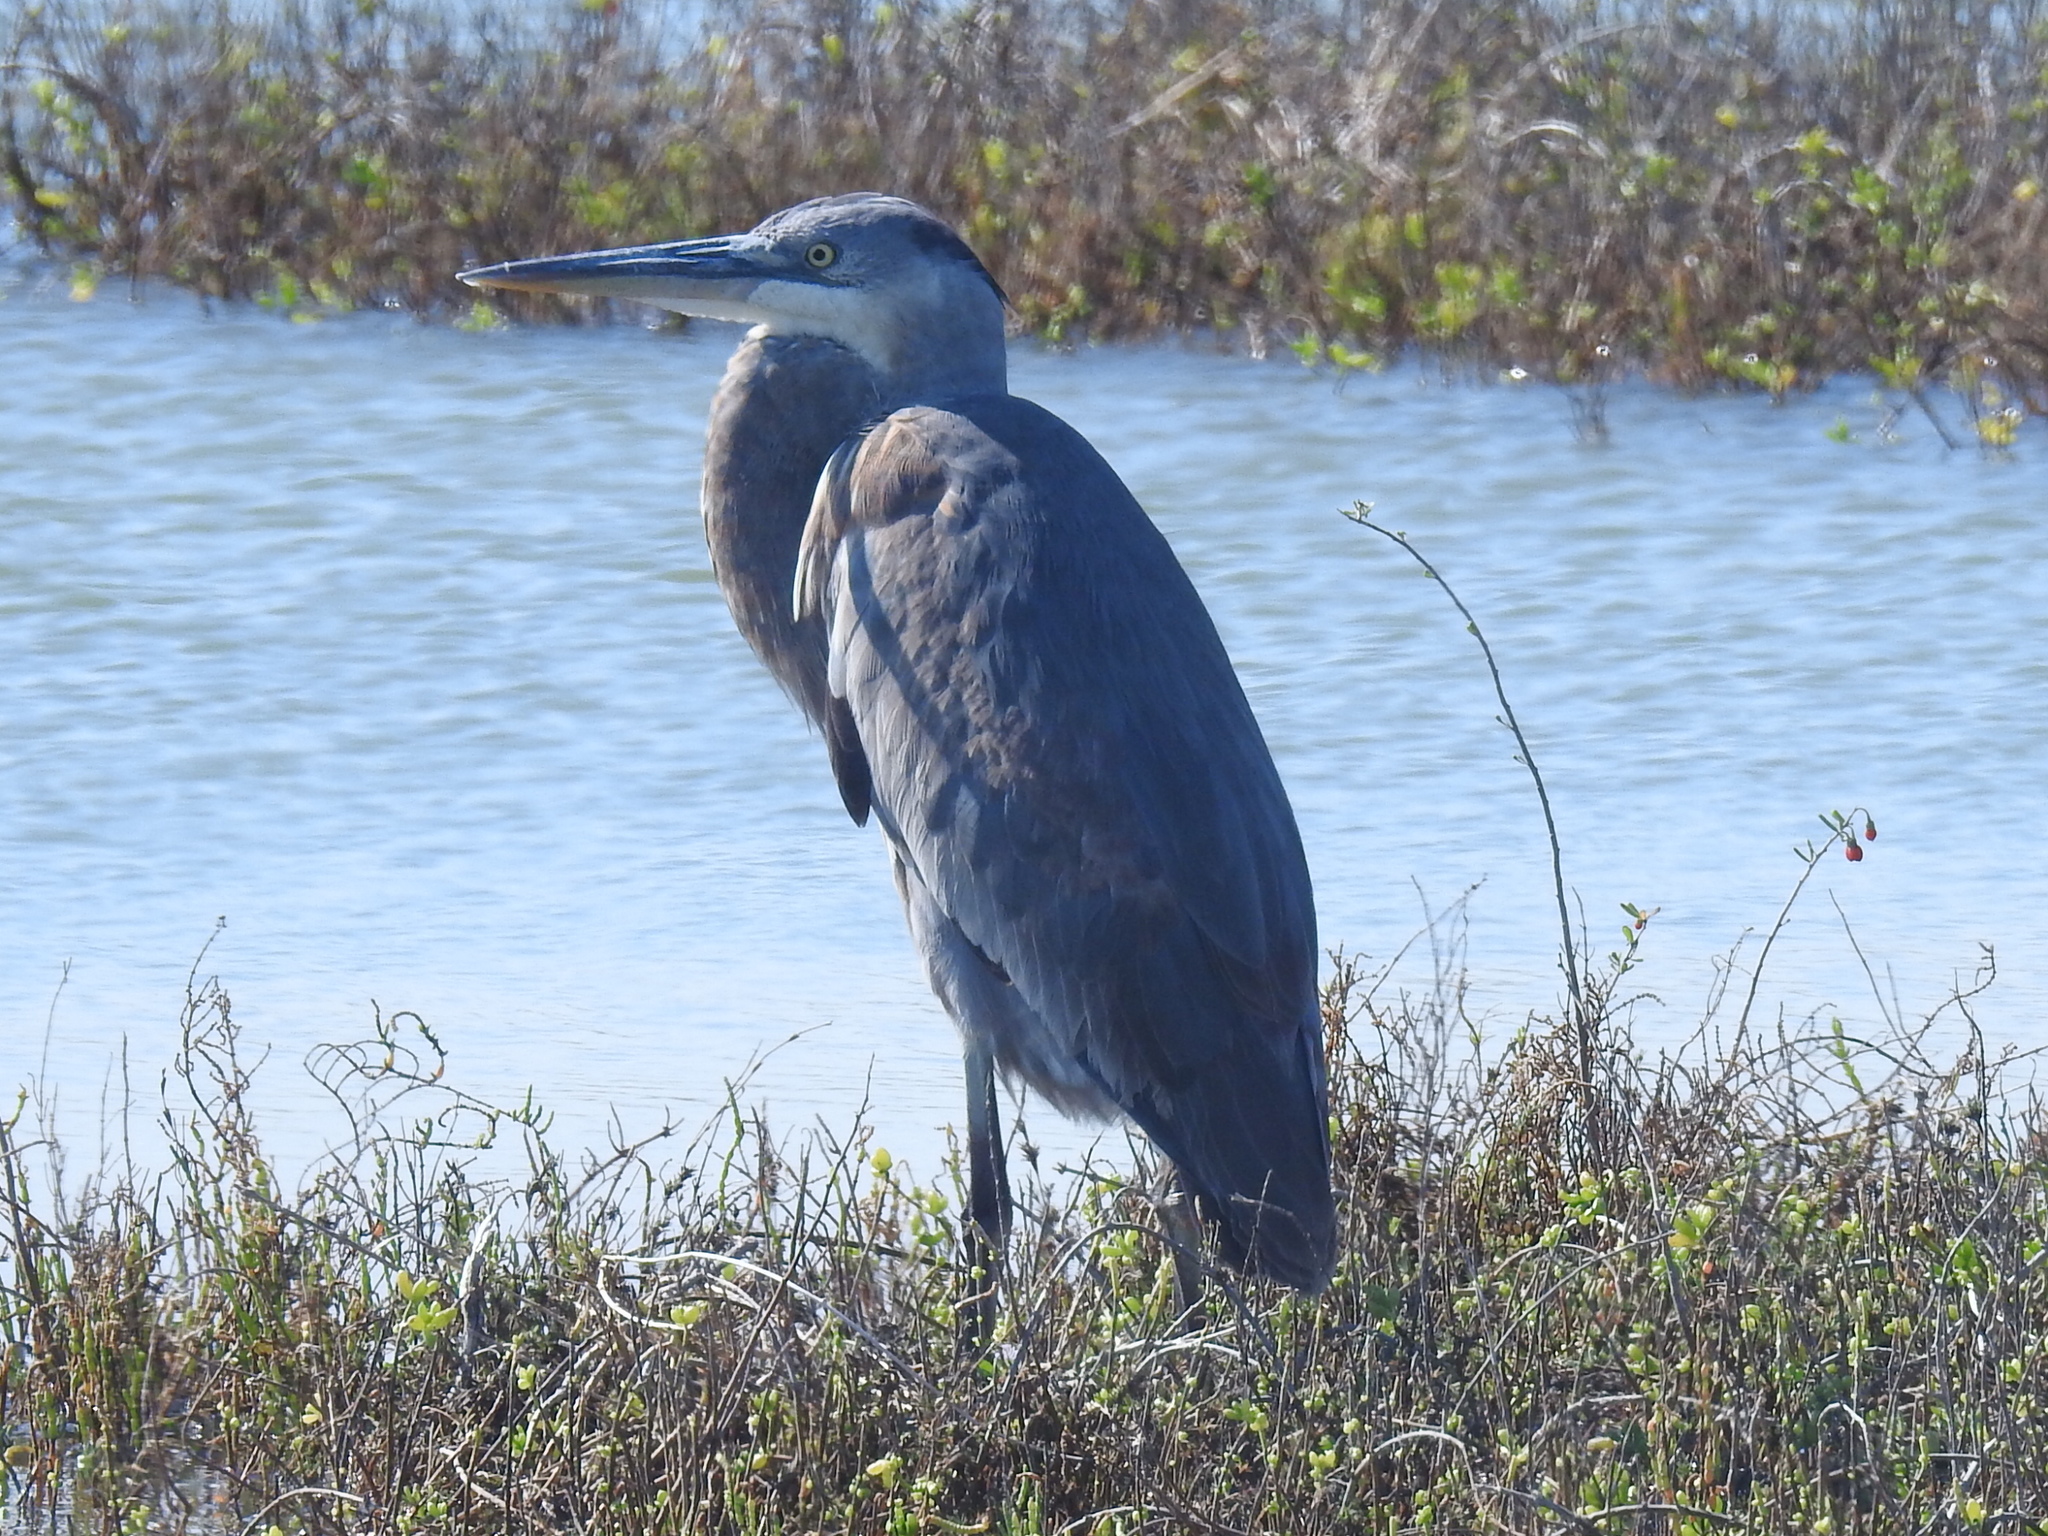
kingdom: Animalia
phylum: Chordata
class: Aves
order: Pelecaniformes
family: Ardeidae
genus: Ardea
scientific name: Ardea herodias
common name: Great blue heron
